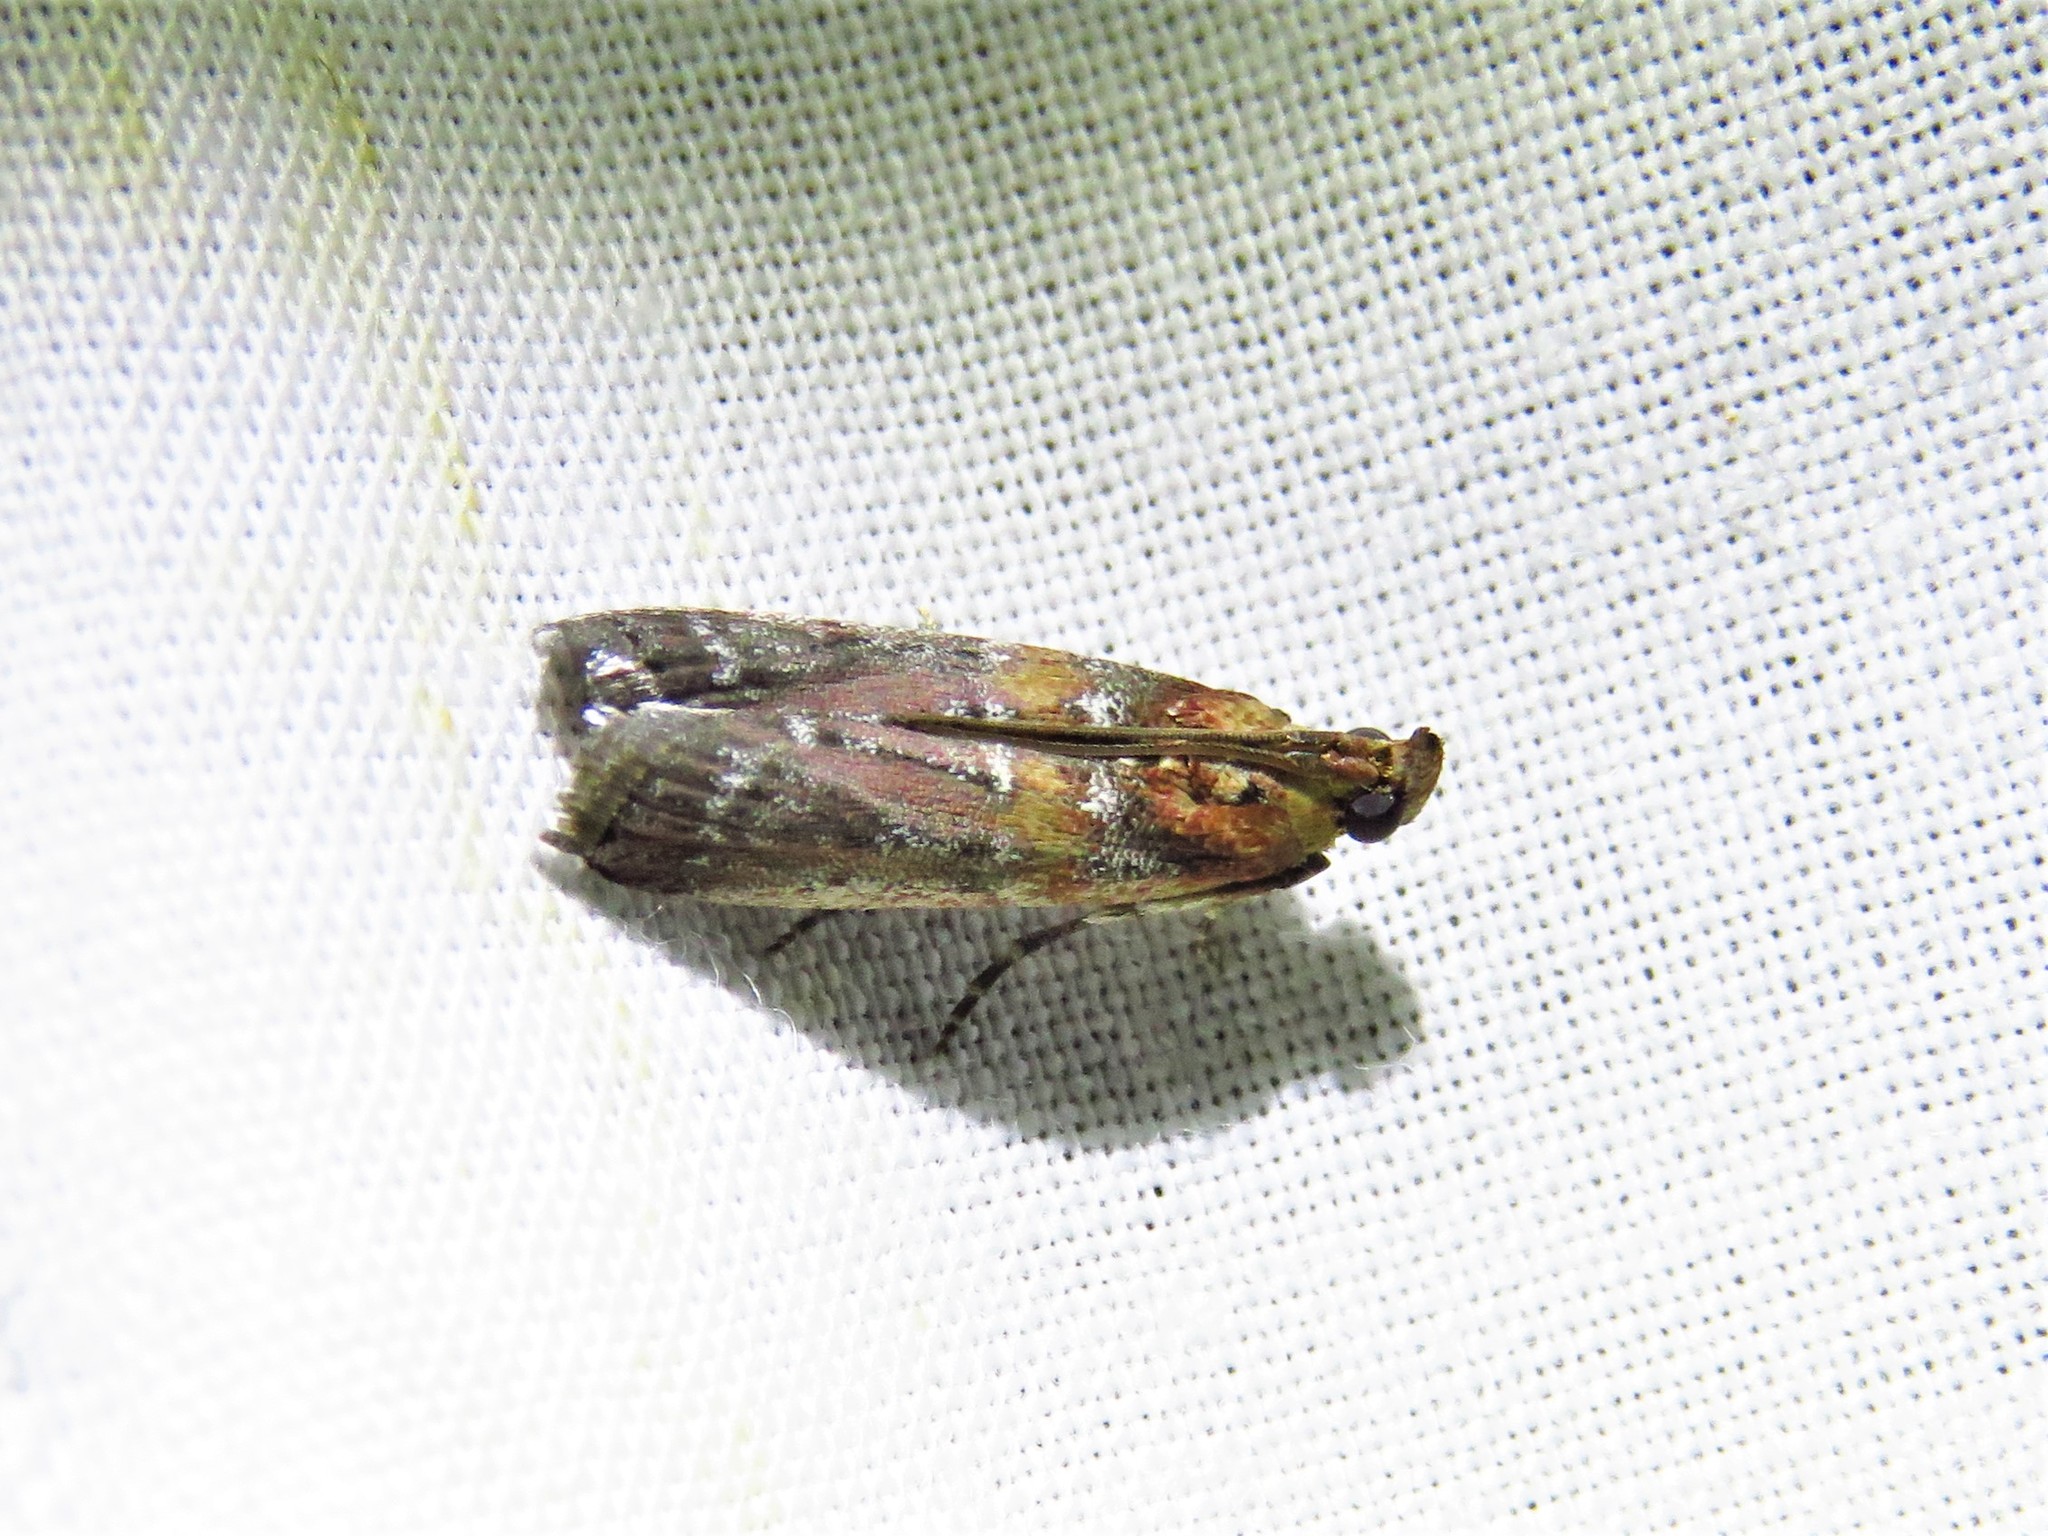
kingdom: Animalia
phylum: Arthropoda
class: Insecta
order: Lepidoptera
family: Pyralidae
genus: Adelphia
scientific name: Adelphia petrella
